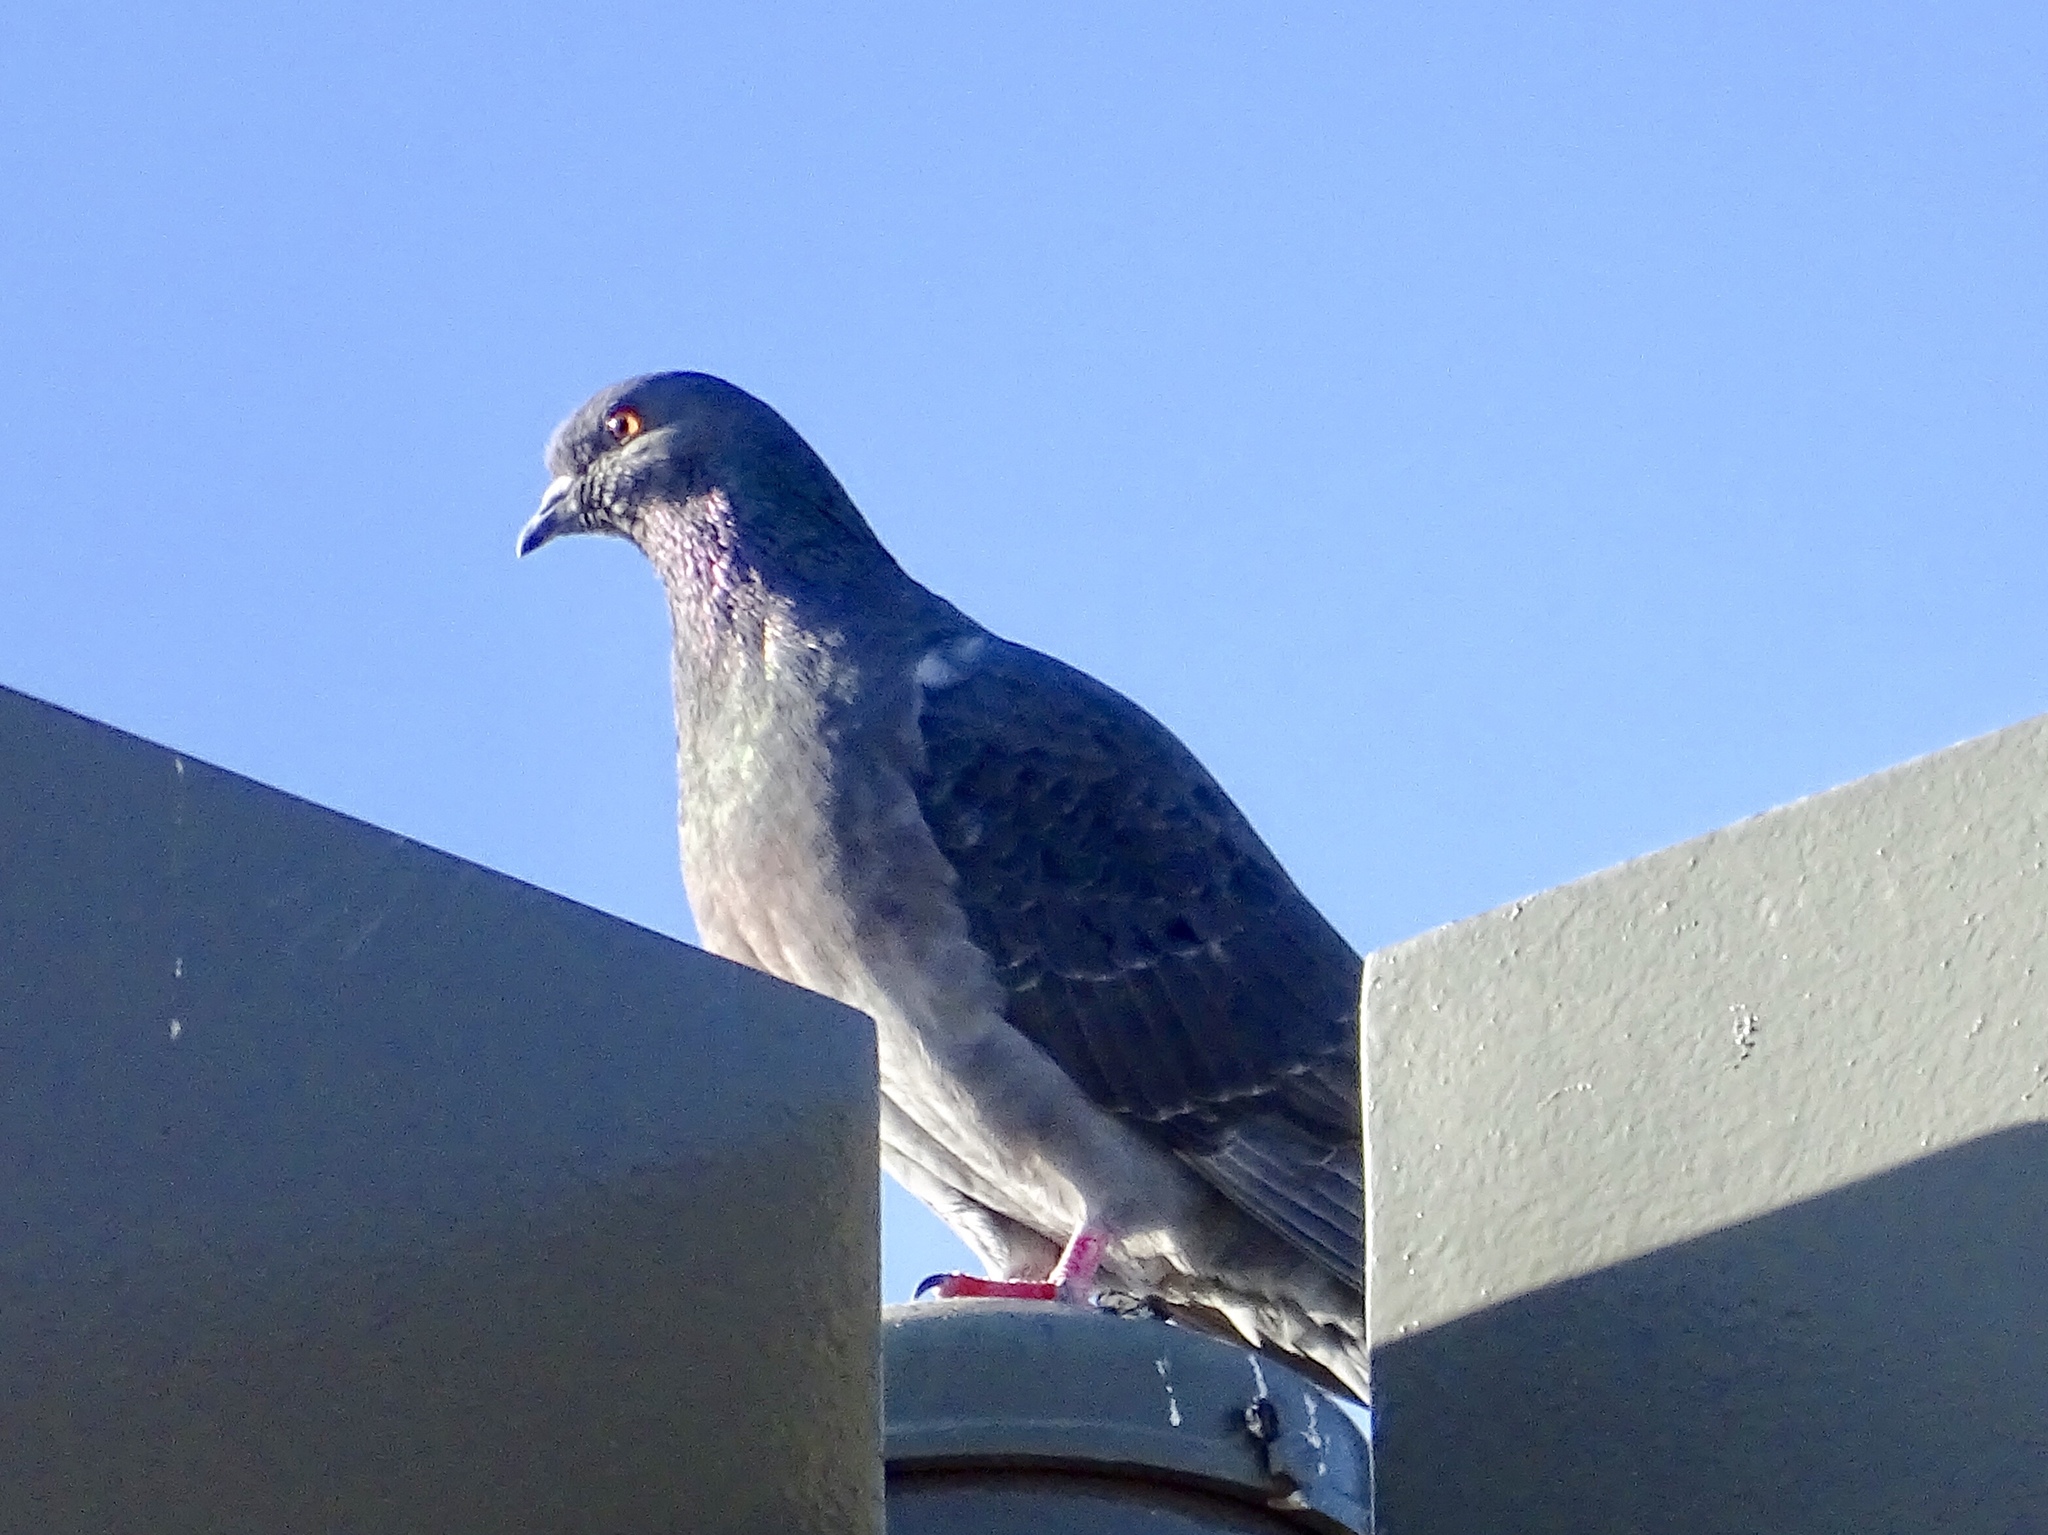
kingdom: Animalia
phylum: Chordata
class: Aves
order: Columbiformes
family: Columbidae
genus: Columba
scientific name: Columba livia
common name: Rock pigeon
